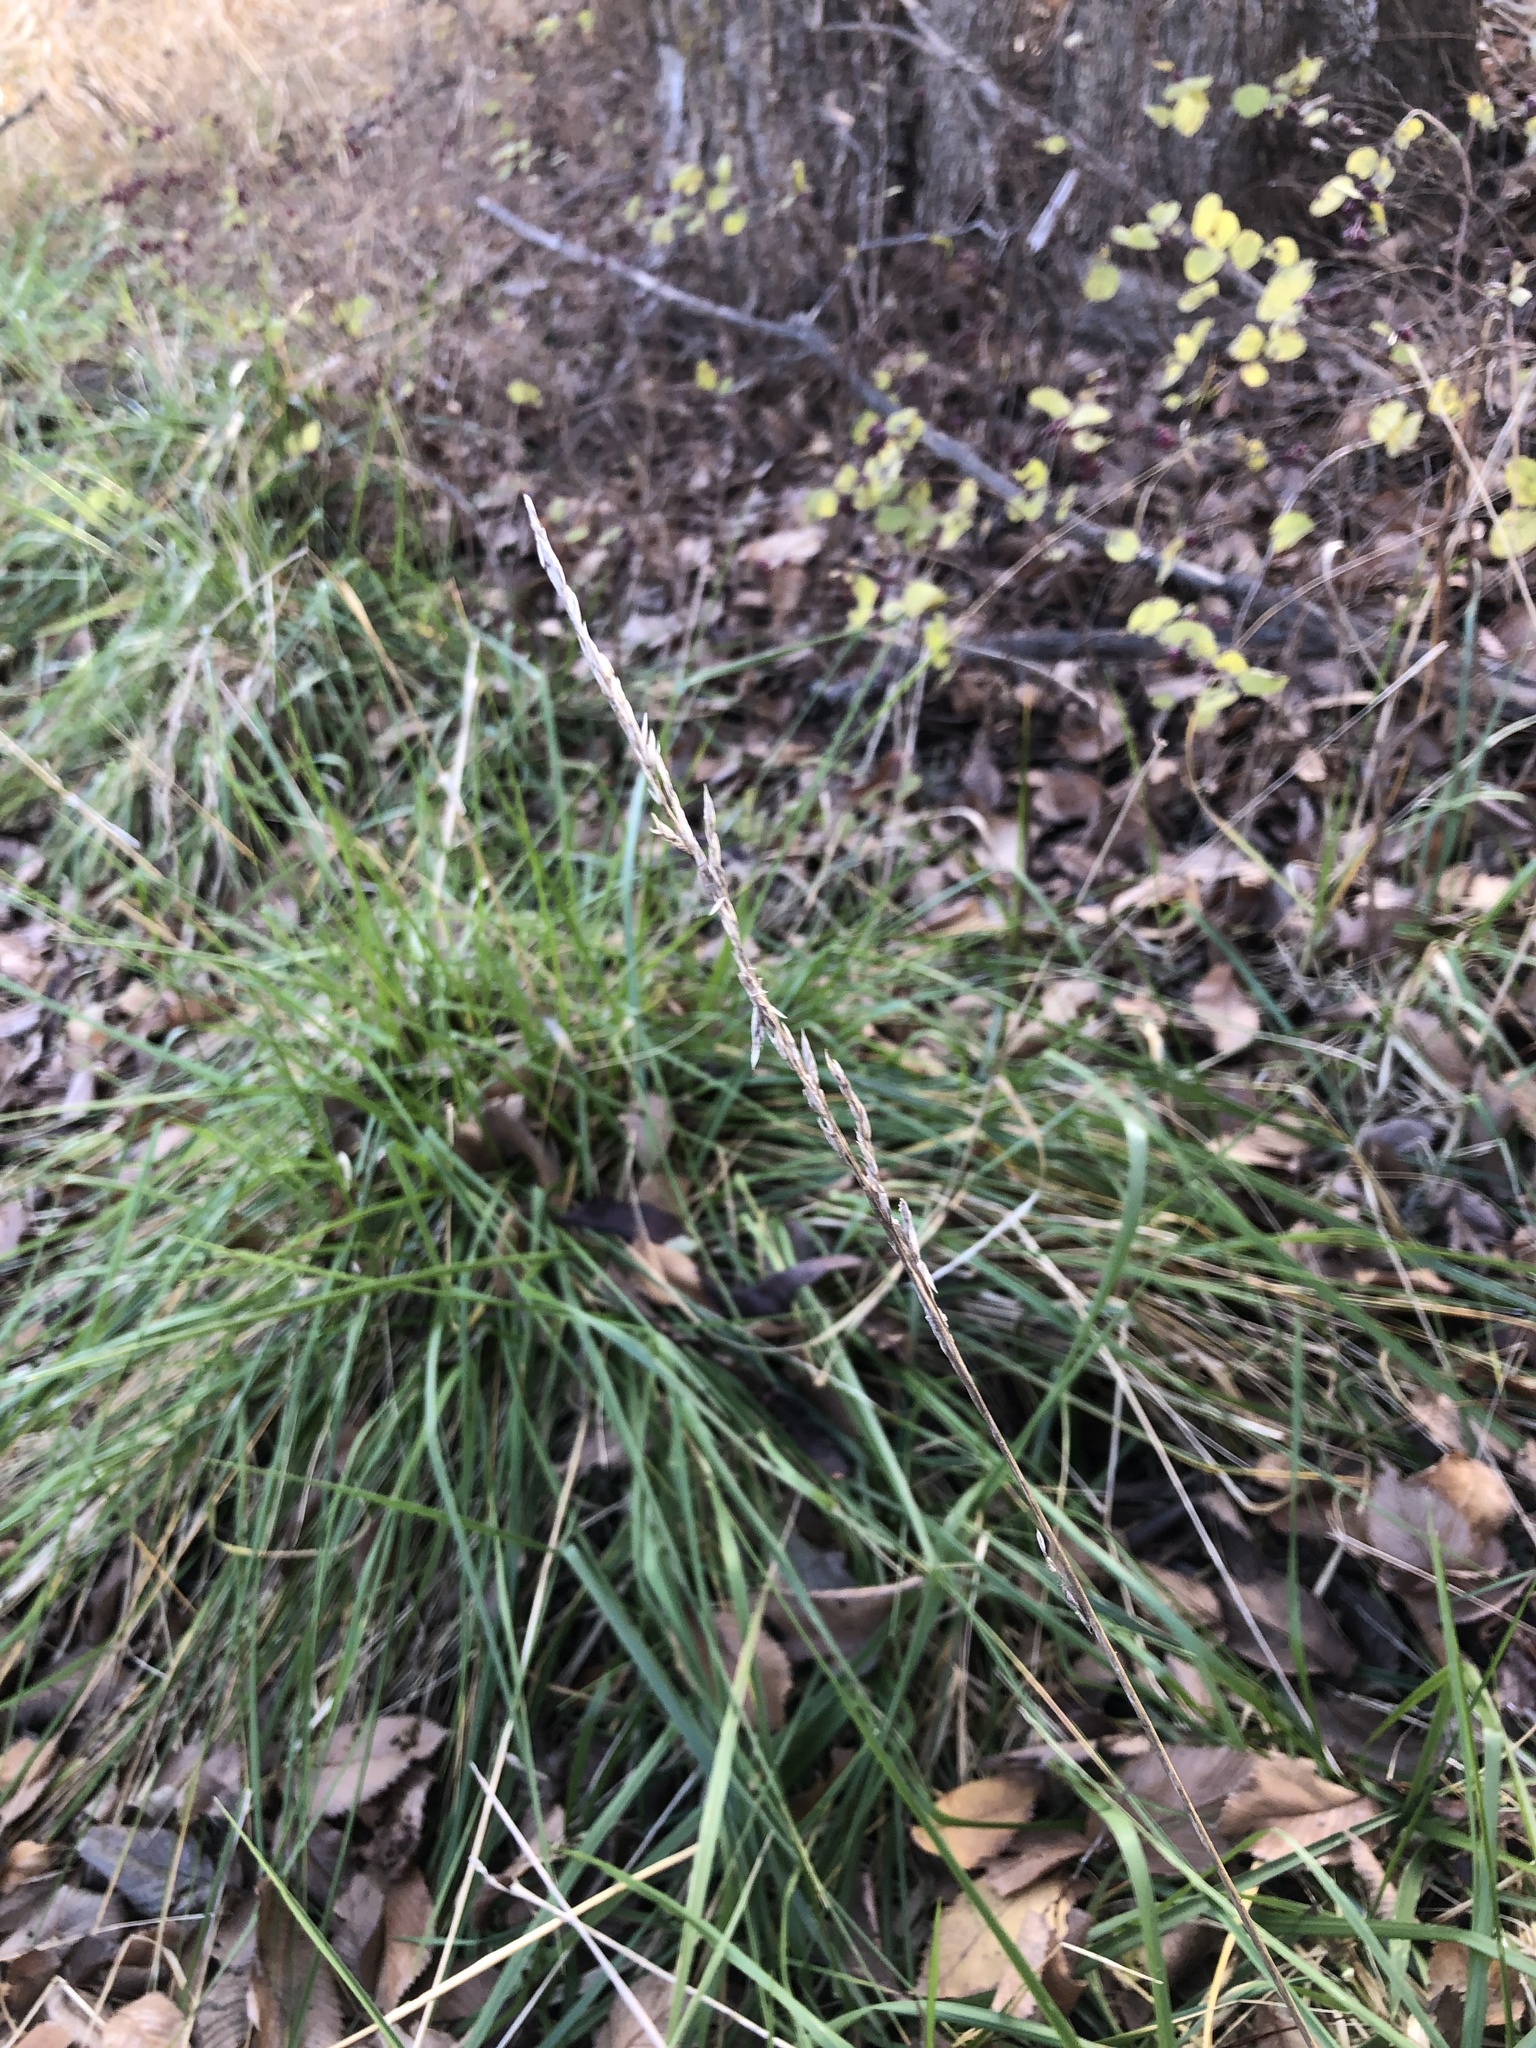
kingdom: Plantae
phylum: Tracheophyta
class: Liliopsida
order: Poales
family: Poaceae
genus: Lolium
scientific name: Lolium arundinaceum
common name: Reed fescue
